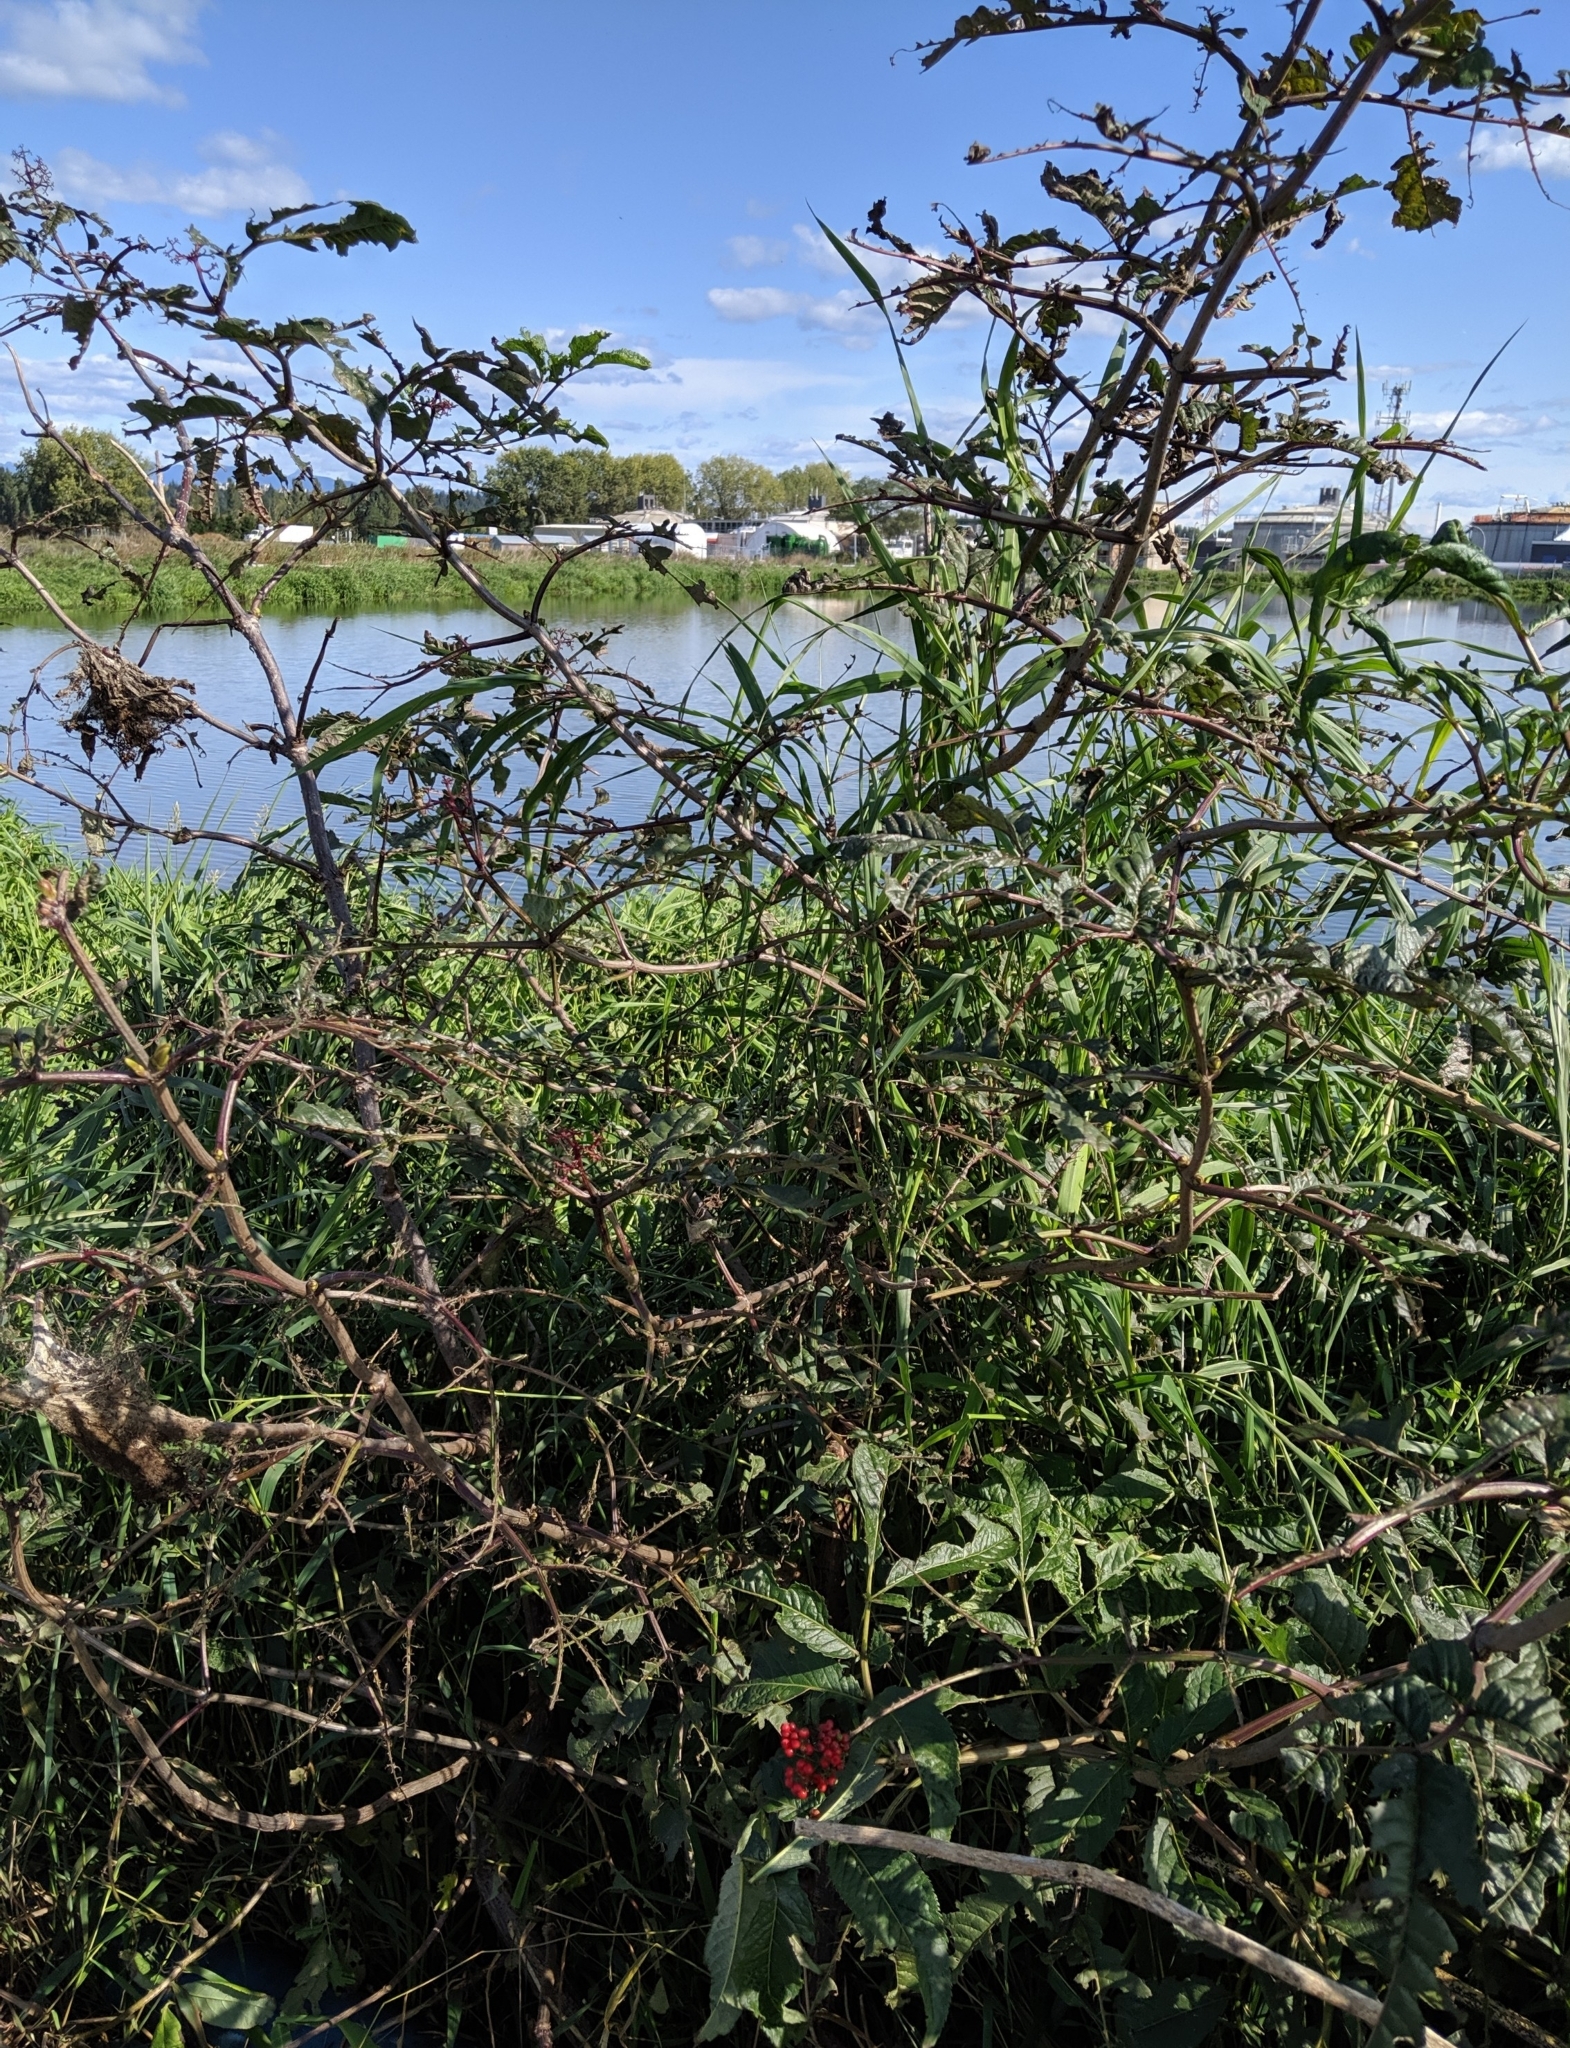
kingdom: Plantae
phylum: Tracheophyta
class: Magnoliopsida
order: Dipsacales
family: Viburnaceae
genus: Sambucus
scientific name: Sambucus racemosa
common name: Red-berried elder
